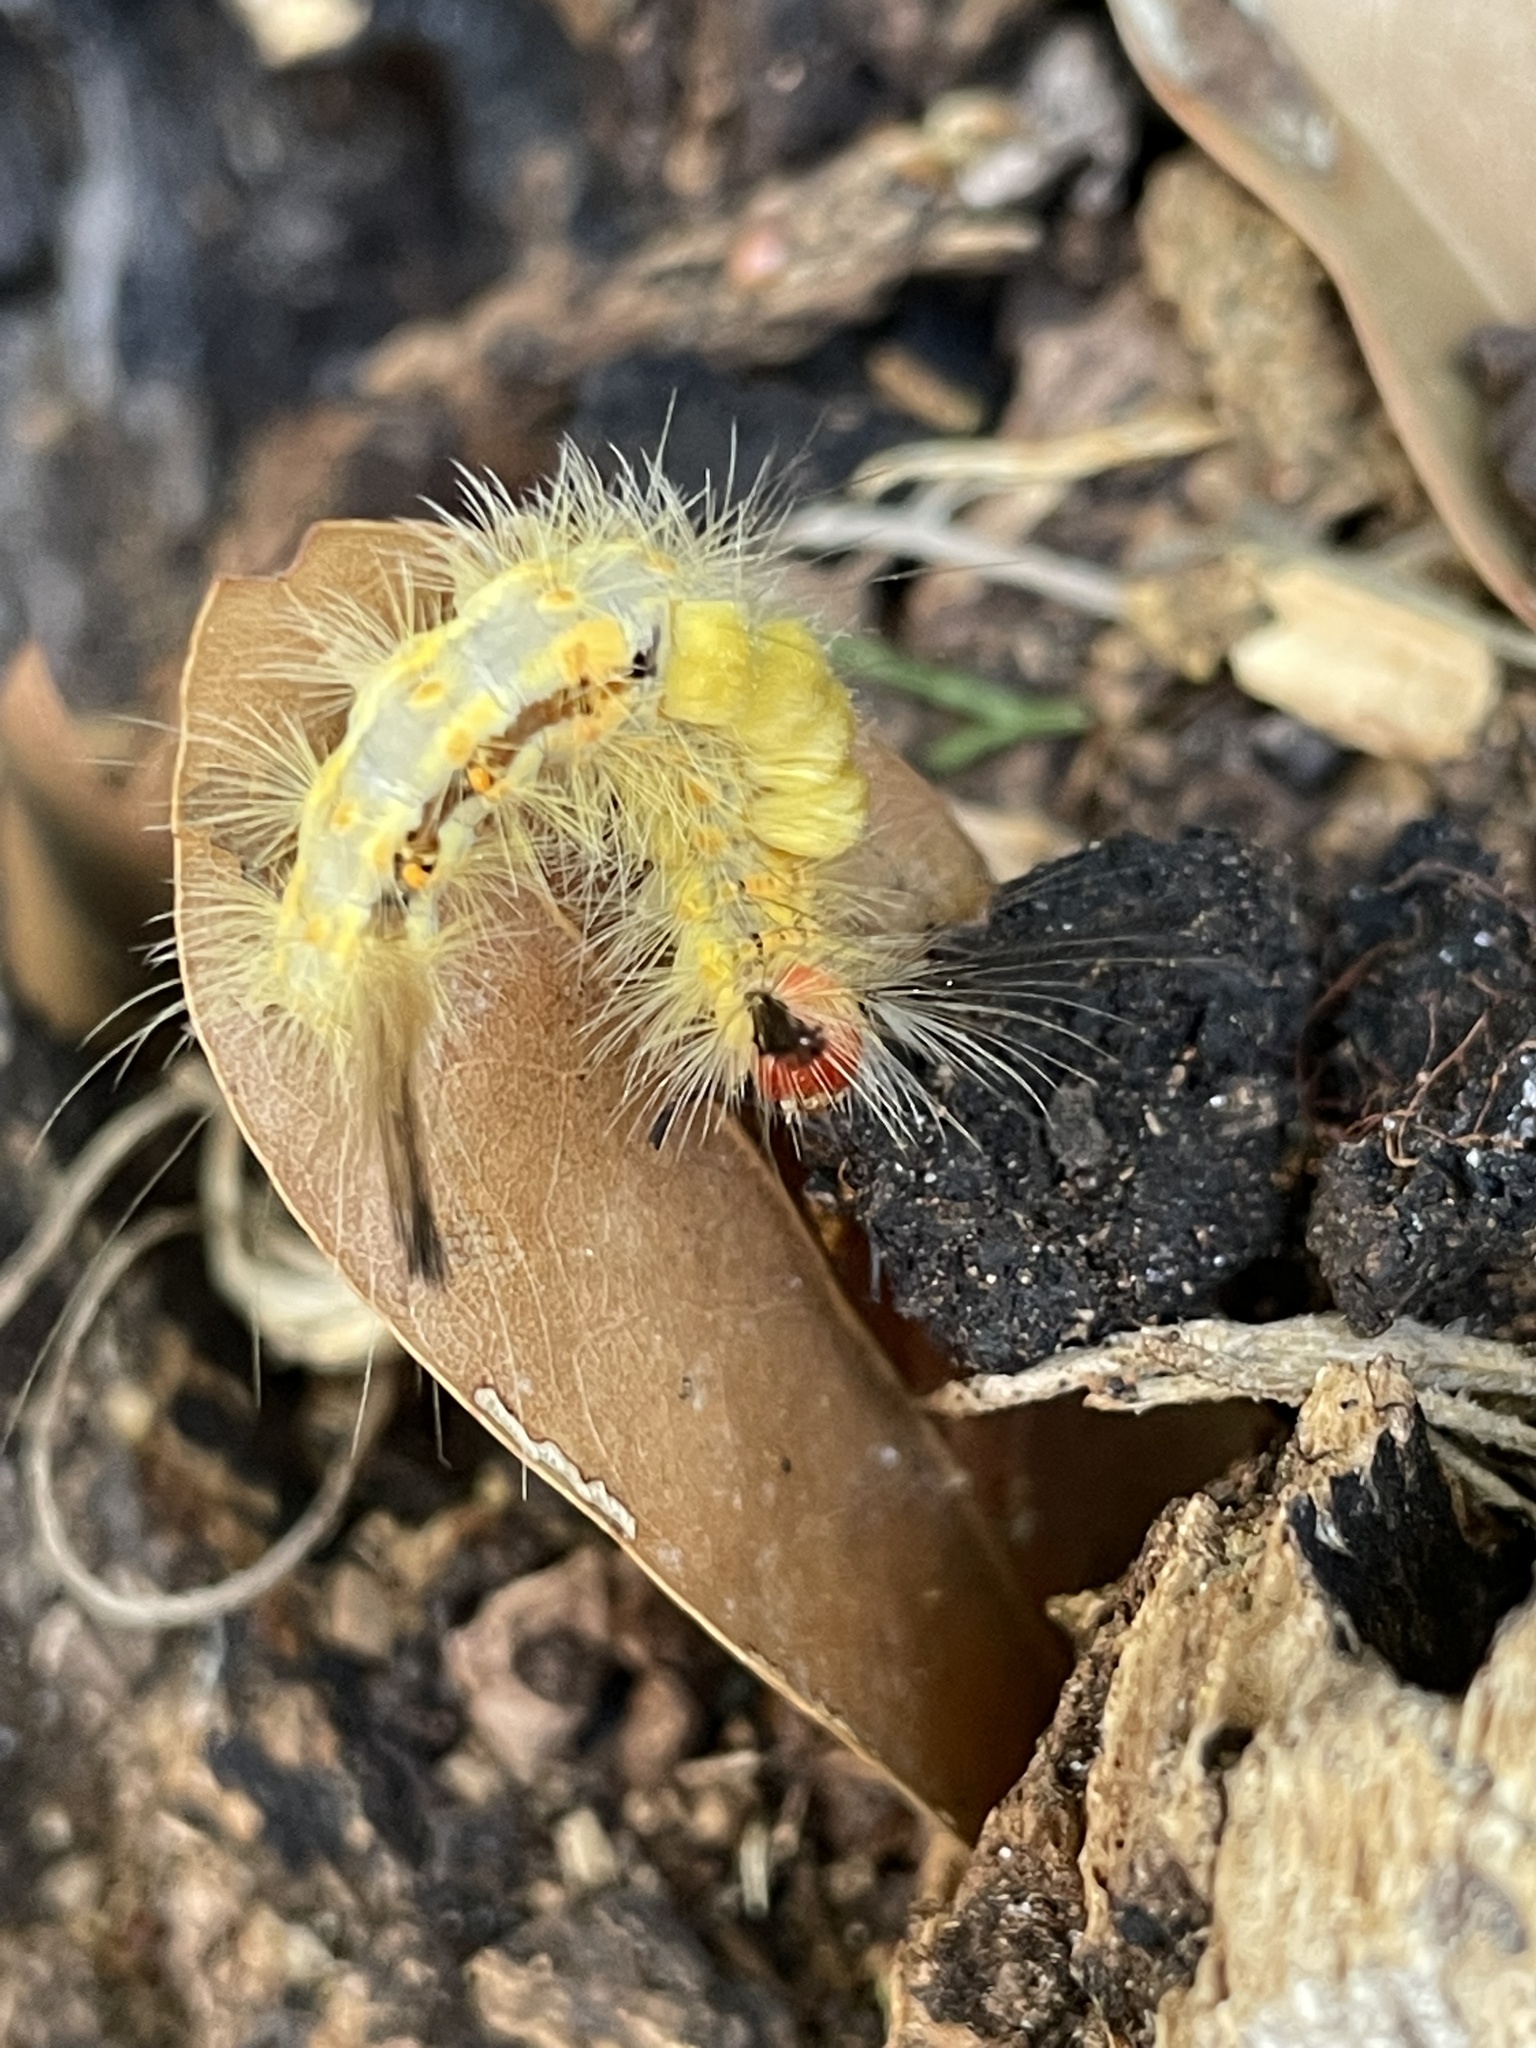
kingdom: Animalia
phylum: Arthropoda
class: Insecta
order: Lepidoptera
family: Erebidae
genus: Orgyia
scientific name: Orgyia detrita
